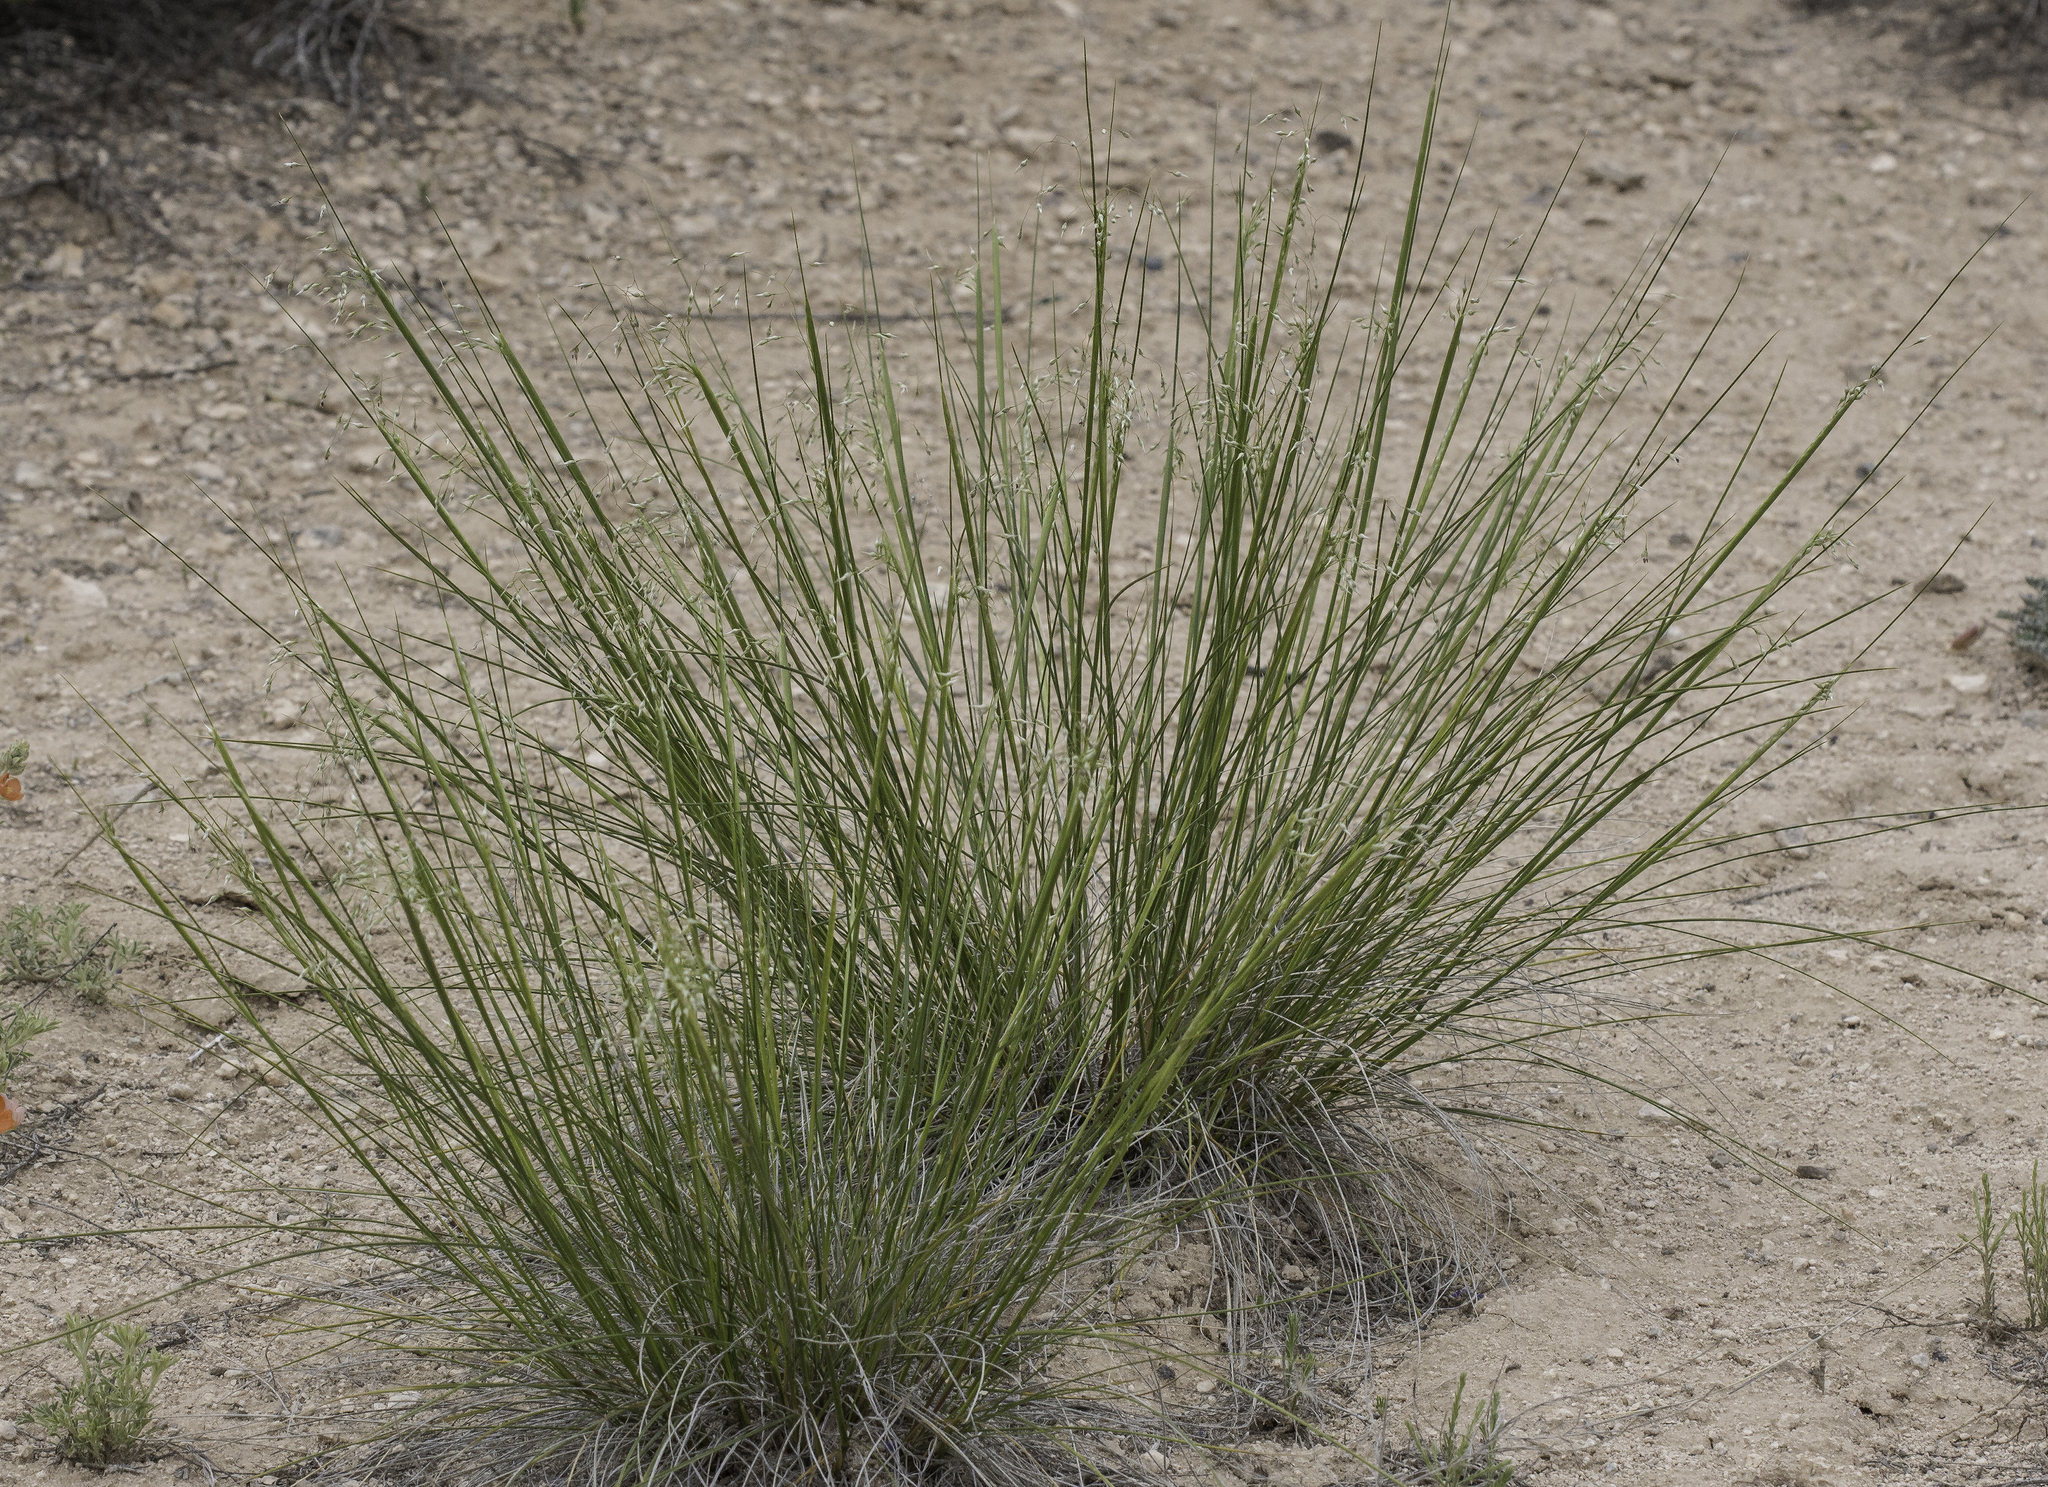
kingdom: Plantae
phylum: Tracheophyta
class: Liliopsida
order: Poales
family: Poaceae
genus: Eriocoma
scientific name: Eriocoma hymenoides
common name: Indian mountain ricegrass
